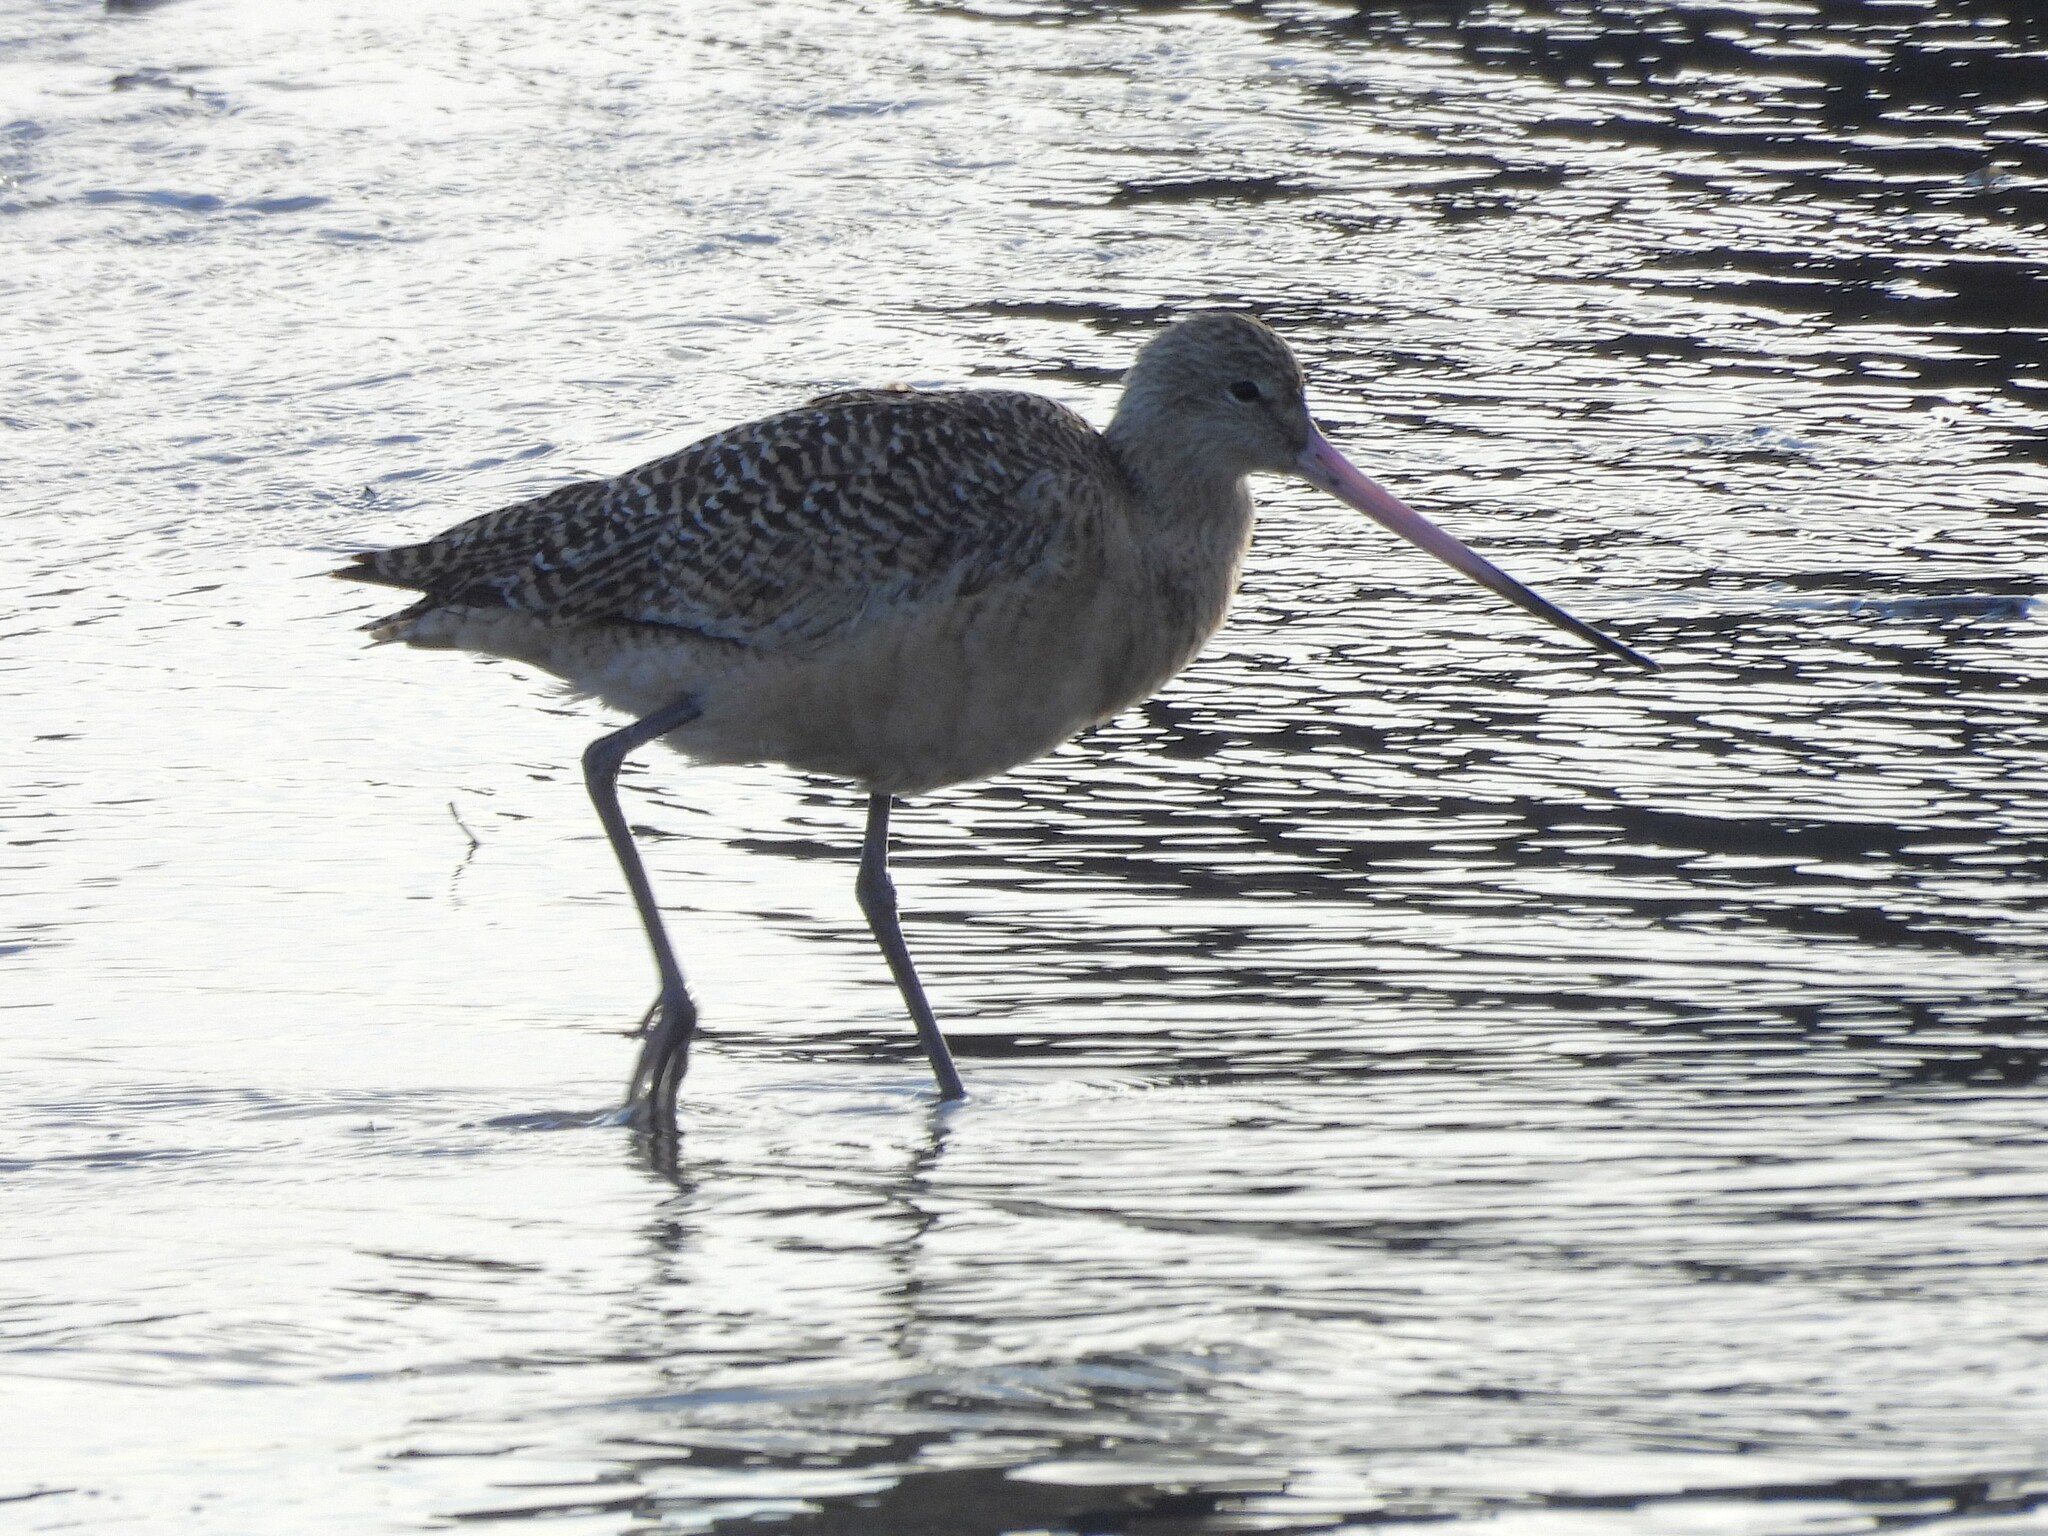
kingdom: Animalia
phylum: Chordata
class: Aves
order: Charadriiformes
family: Scolopacidae
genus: Limosa
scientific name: Limosa fedoa
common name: Marbled godwit
